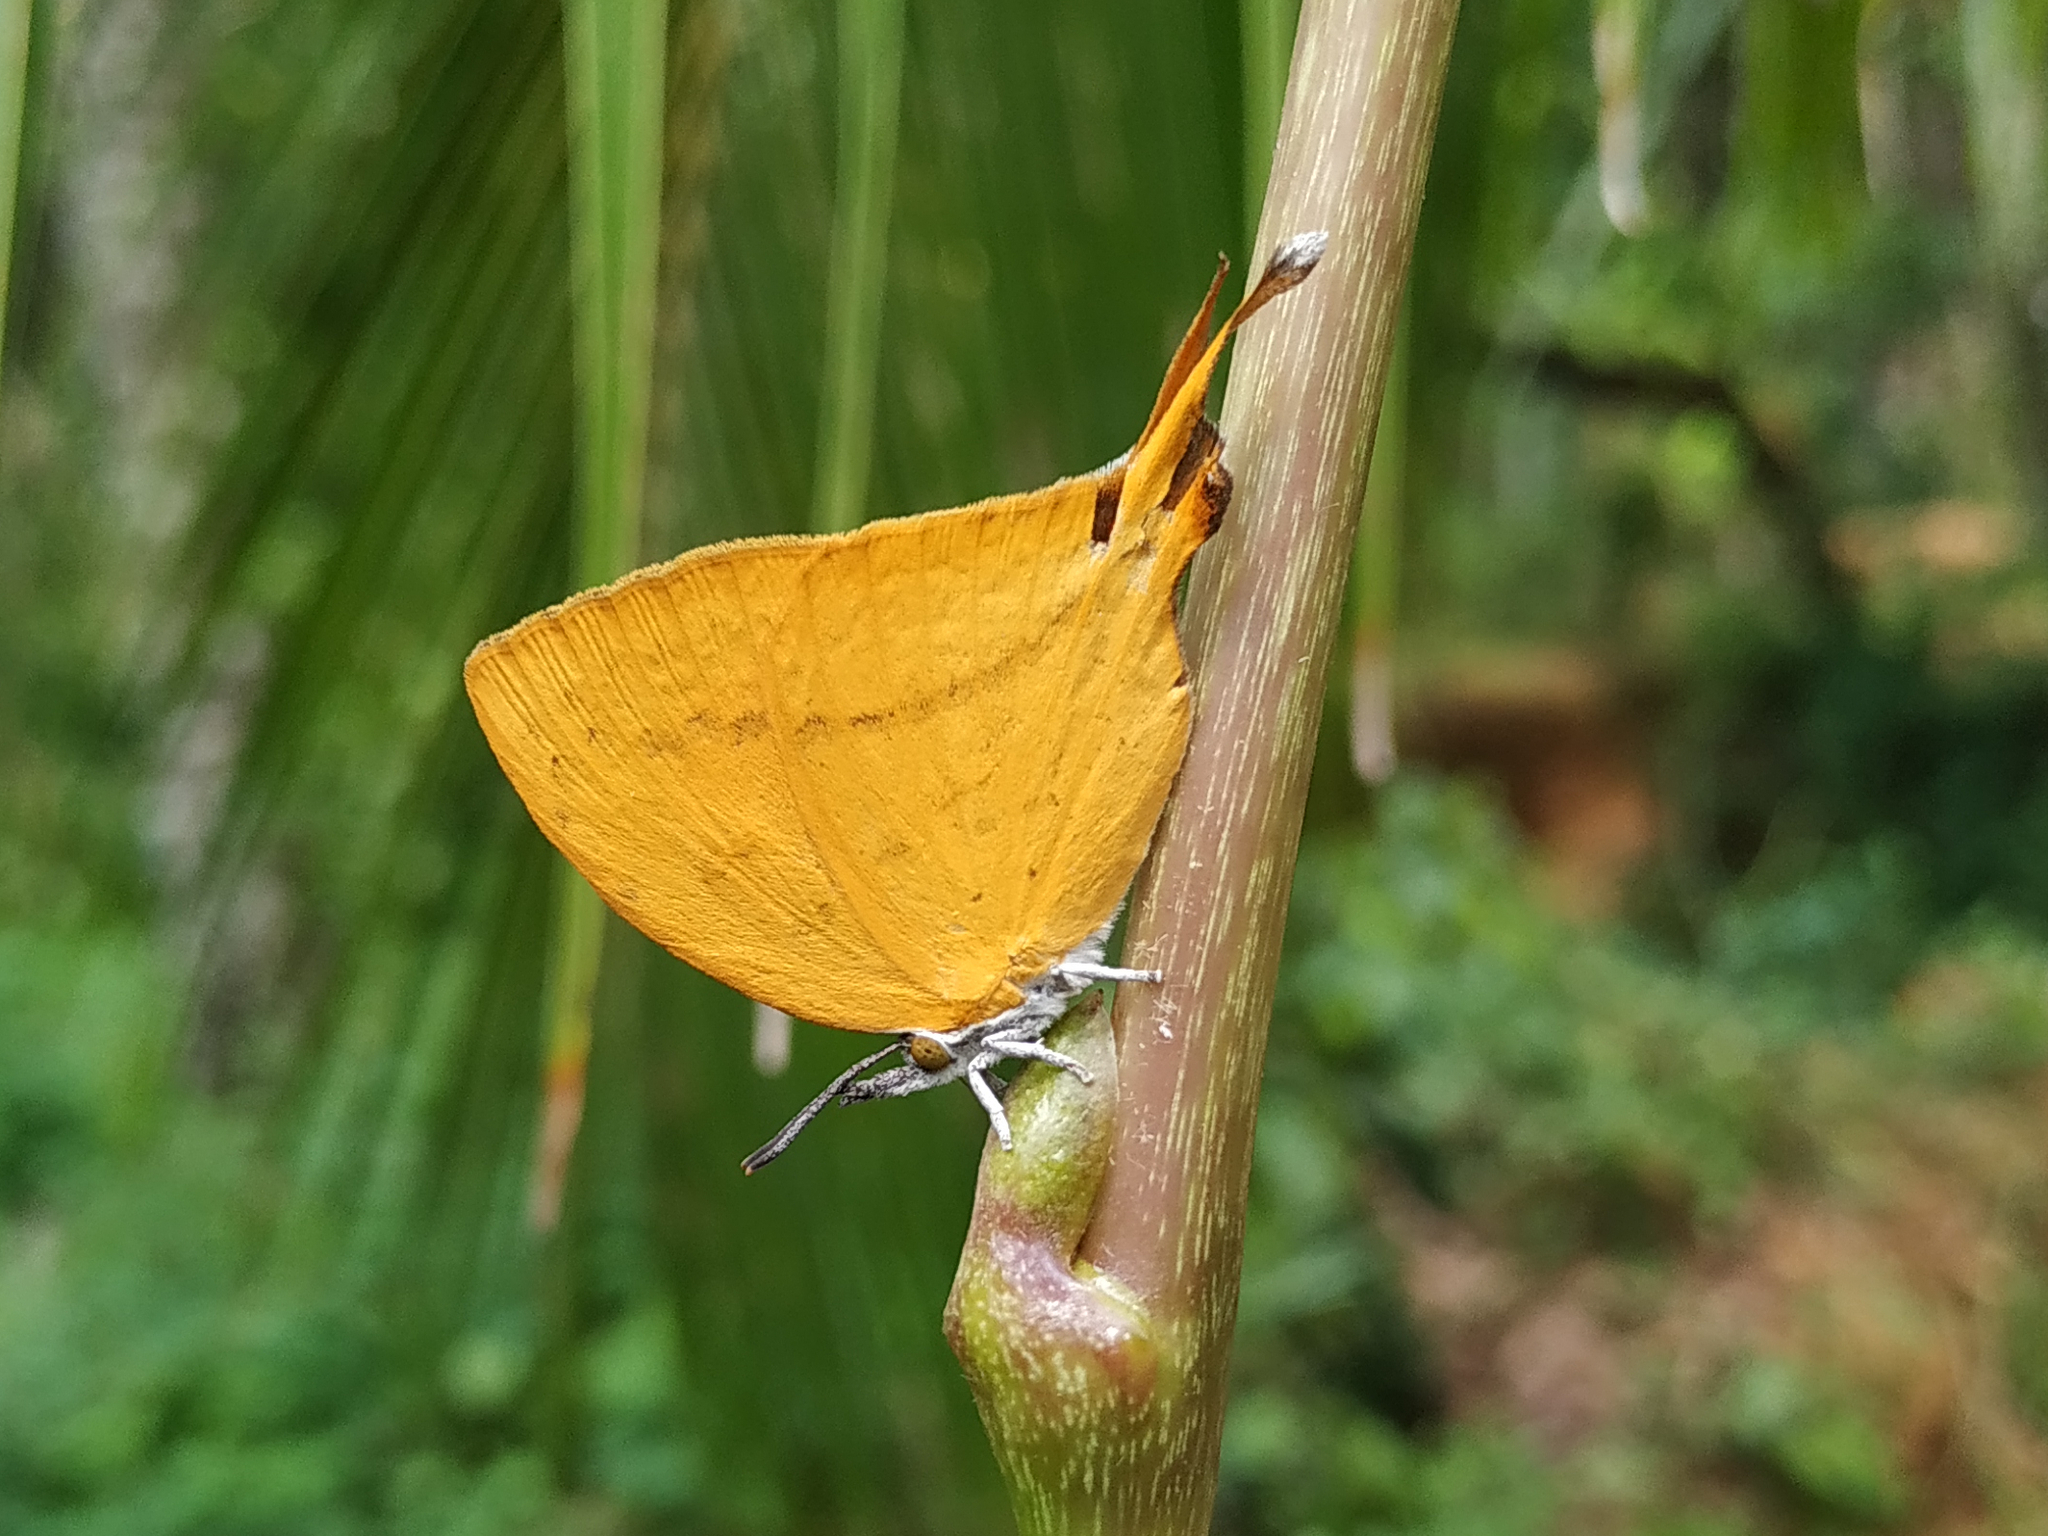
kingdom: Animalia
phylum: Arthropoda
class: Insecta
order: Lepidoptera
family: Lycaenidae
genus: Loxura
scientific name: Loxura atymnus
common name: Common yamfly
